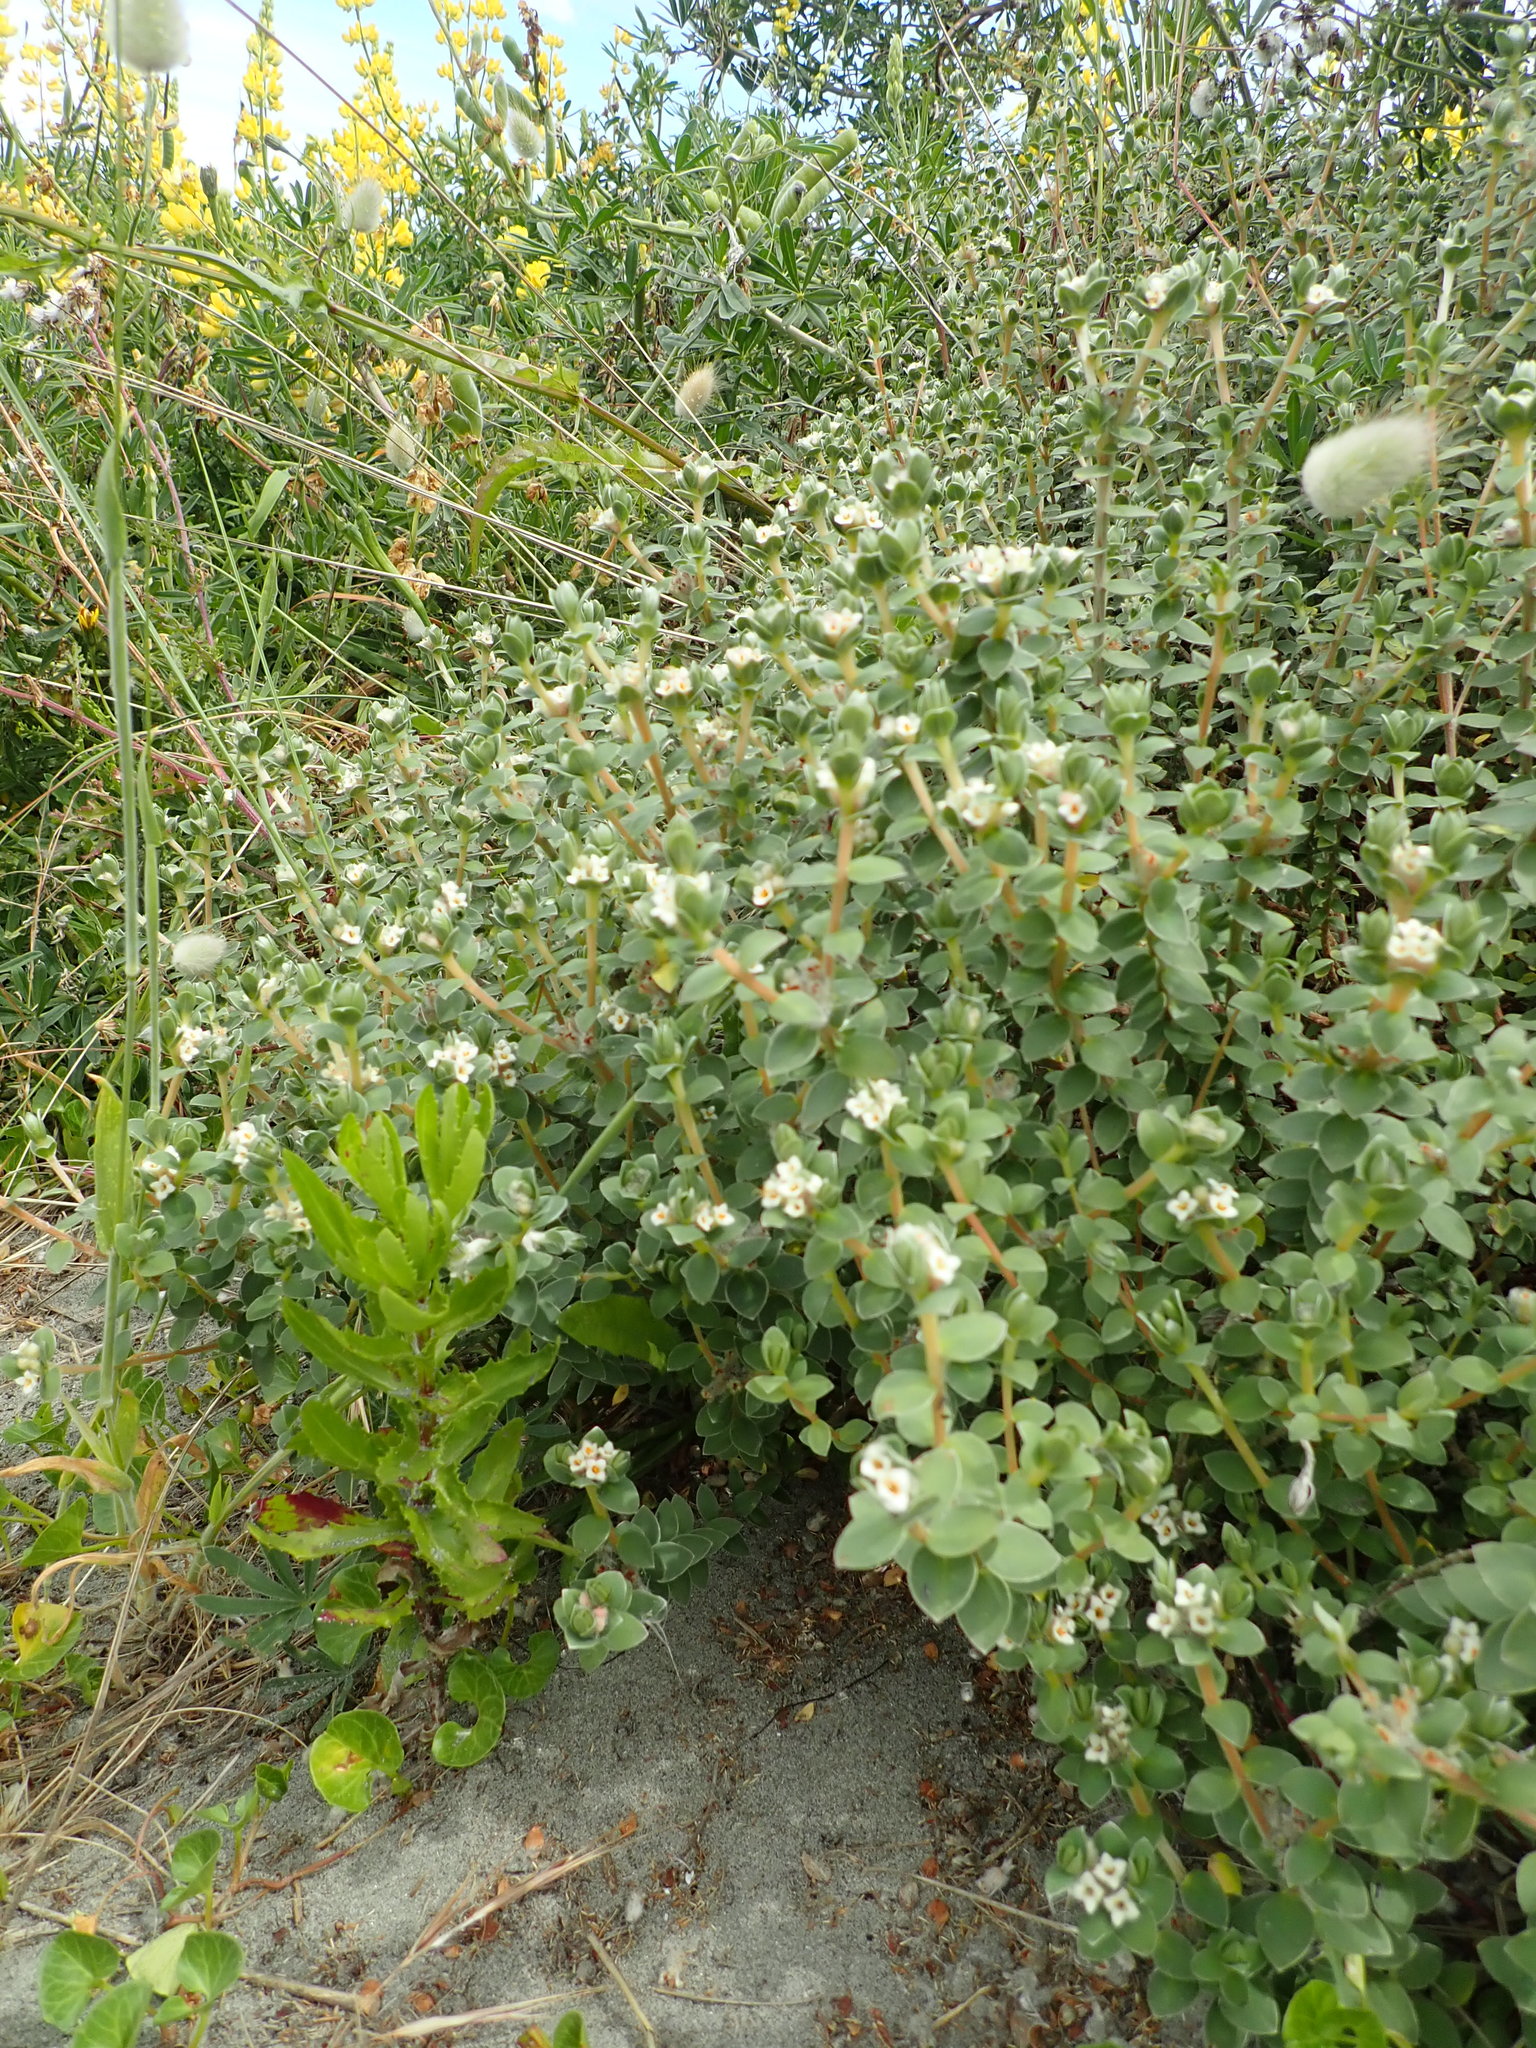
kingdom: Plantae
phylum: Tracheophyta
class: Magnoliopsida
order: Malvales
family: Thymelaeaceae
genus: Pimelea
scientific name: Pimelea villosa
